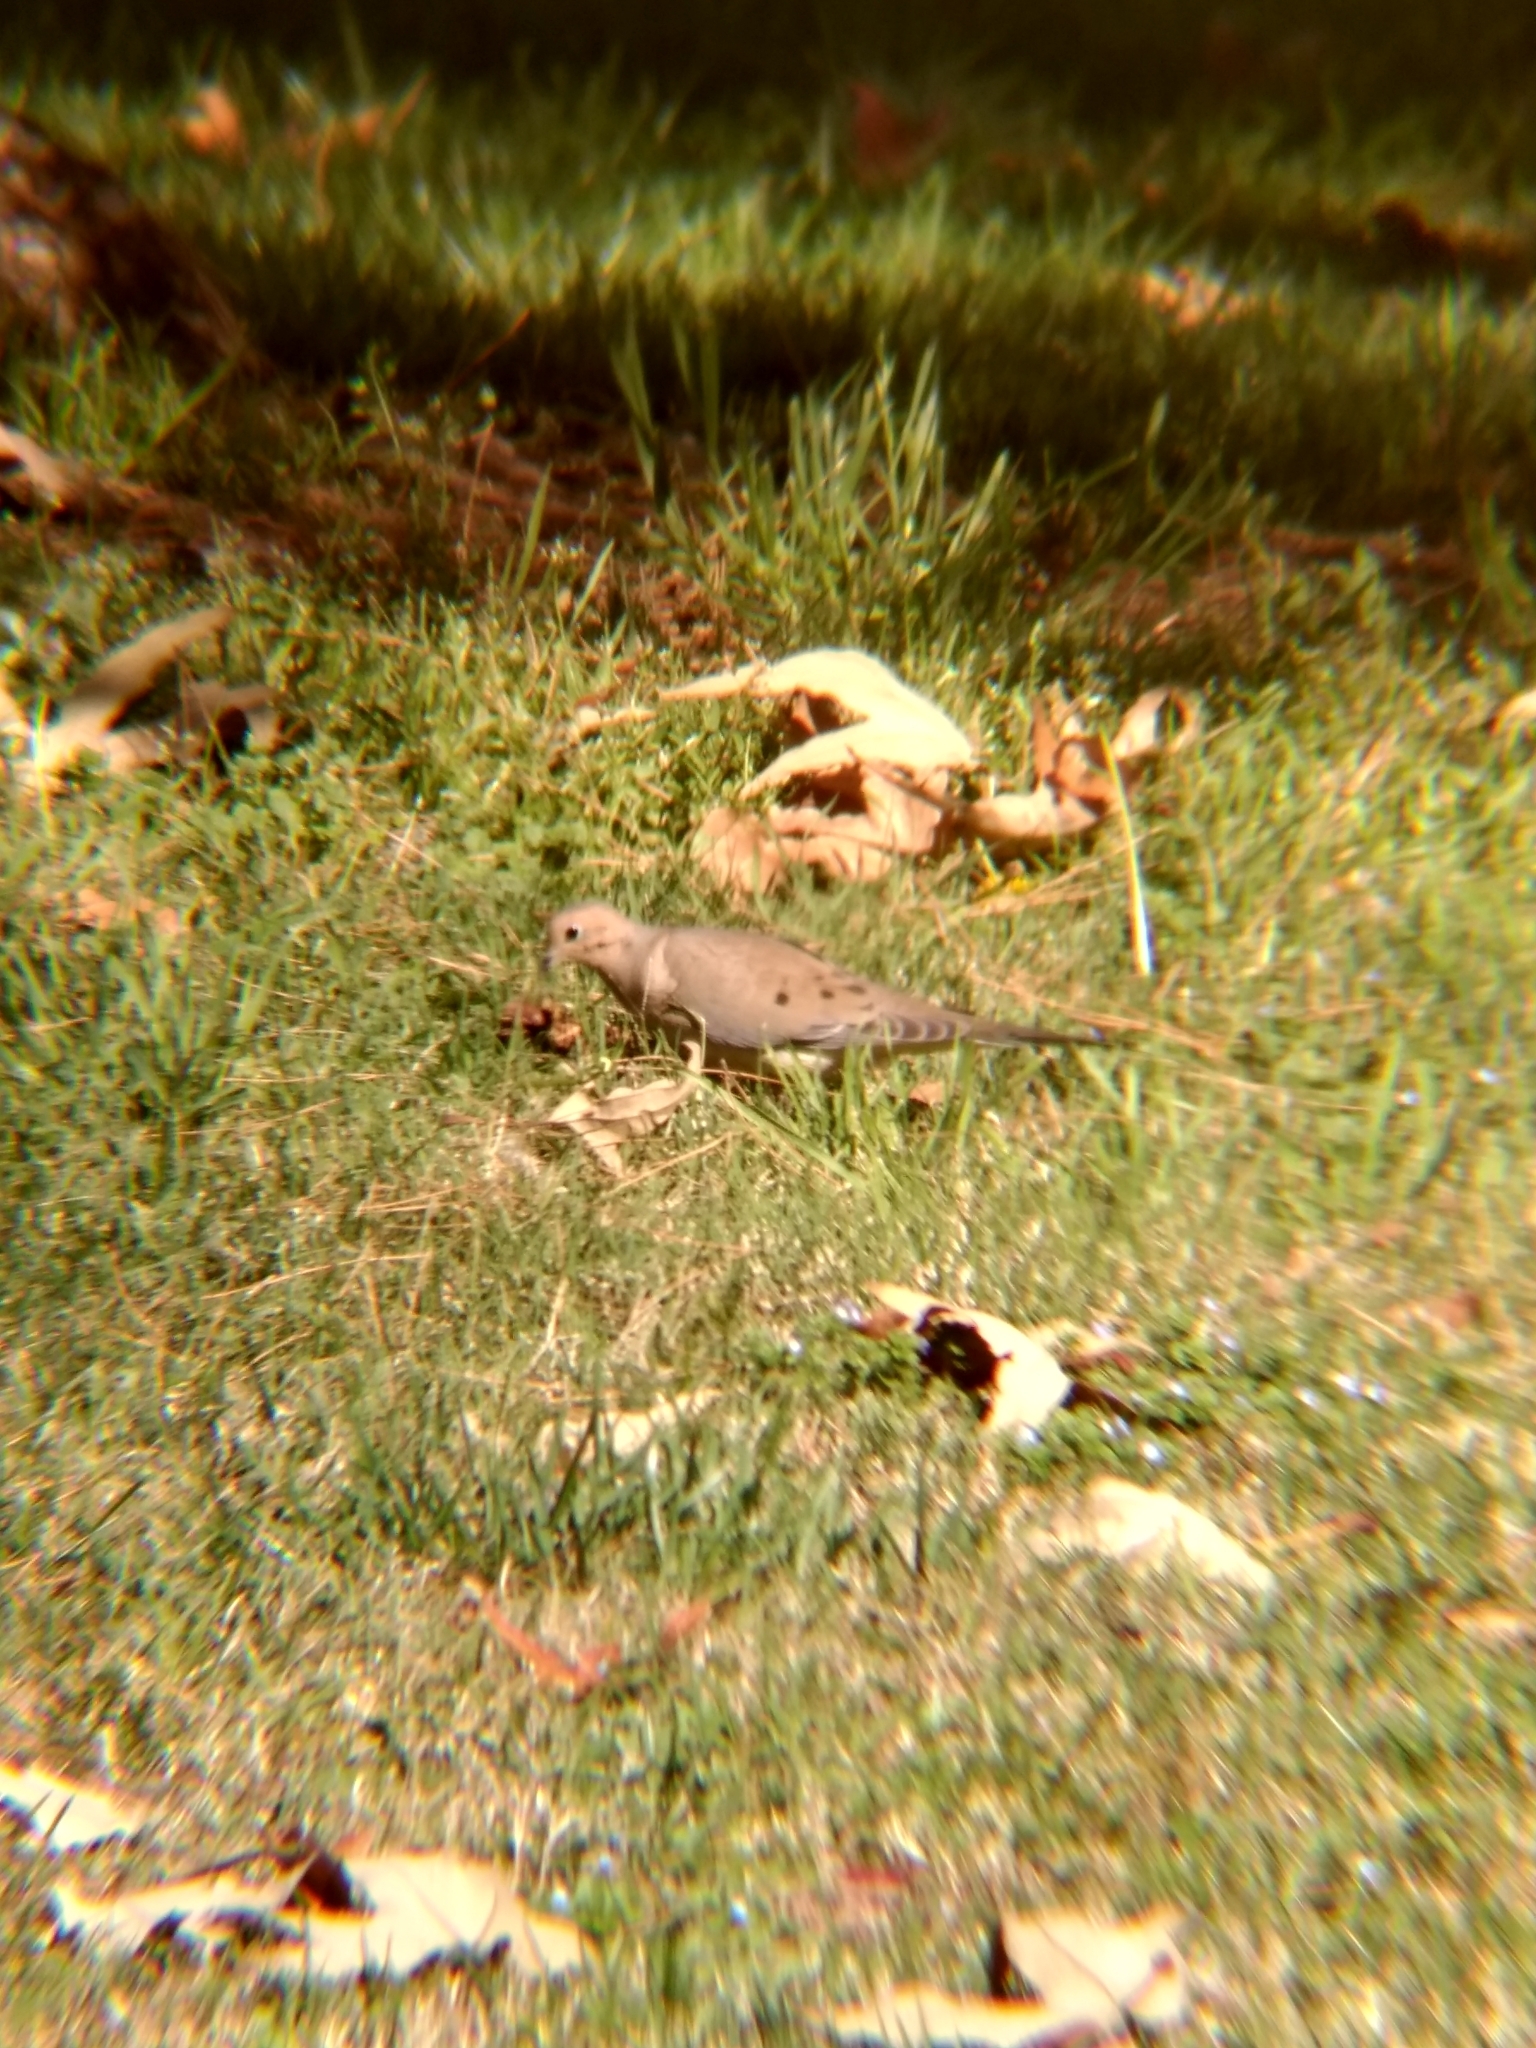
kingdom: Animalia
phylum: Chordata
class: Aves
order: Columbiformes
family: Columbidae
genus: Zenaida
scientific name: Zenaida macroura
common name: Mourning dove
